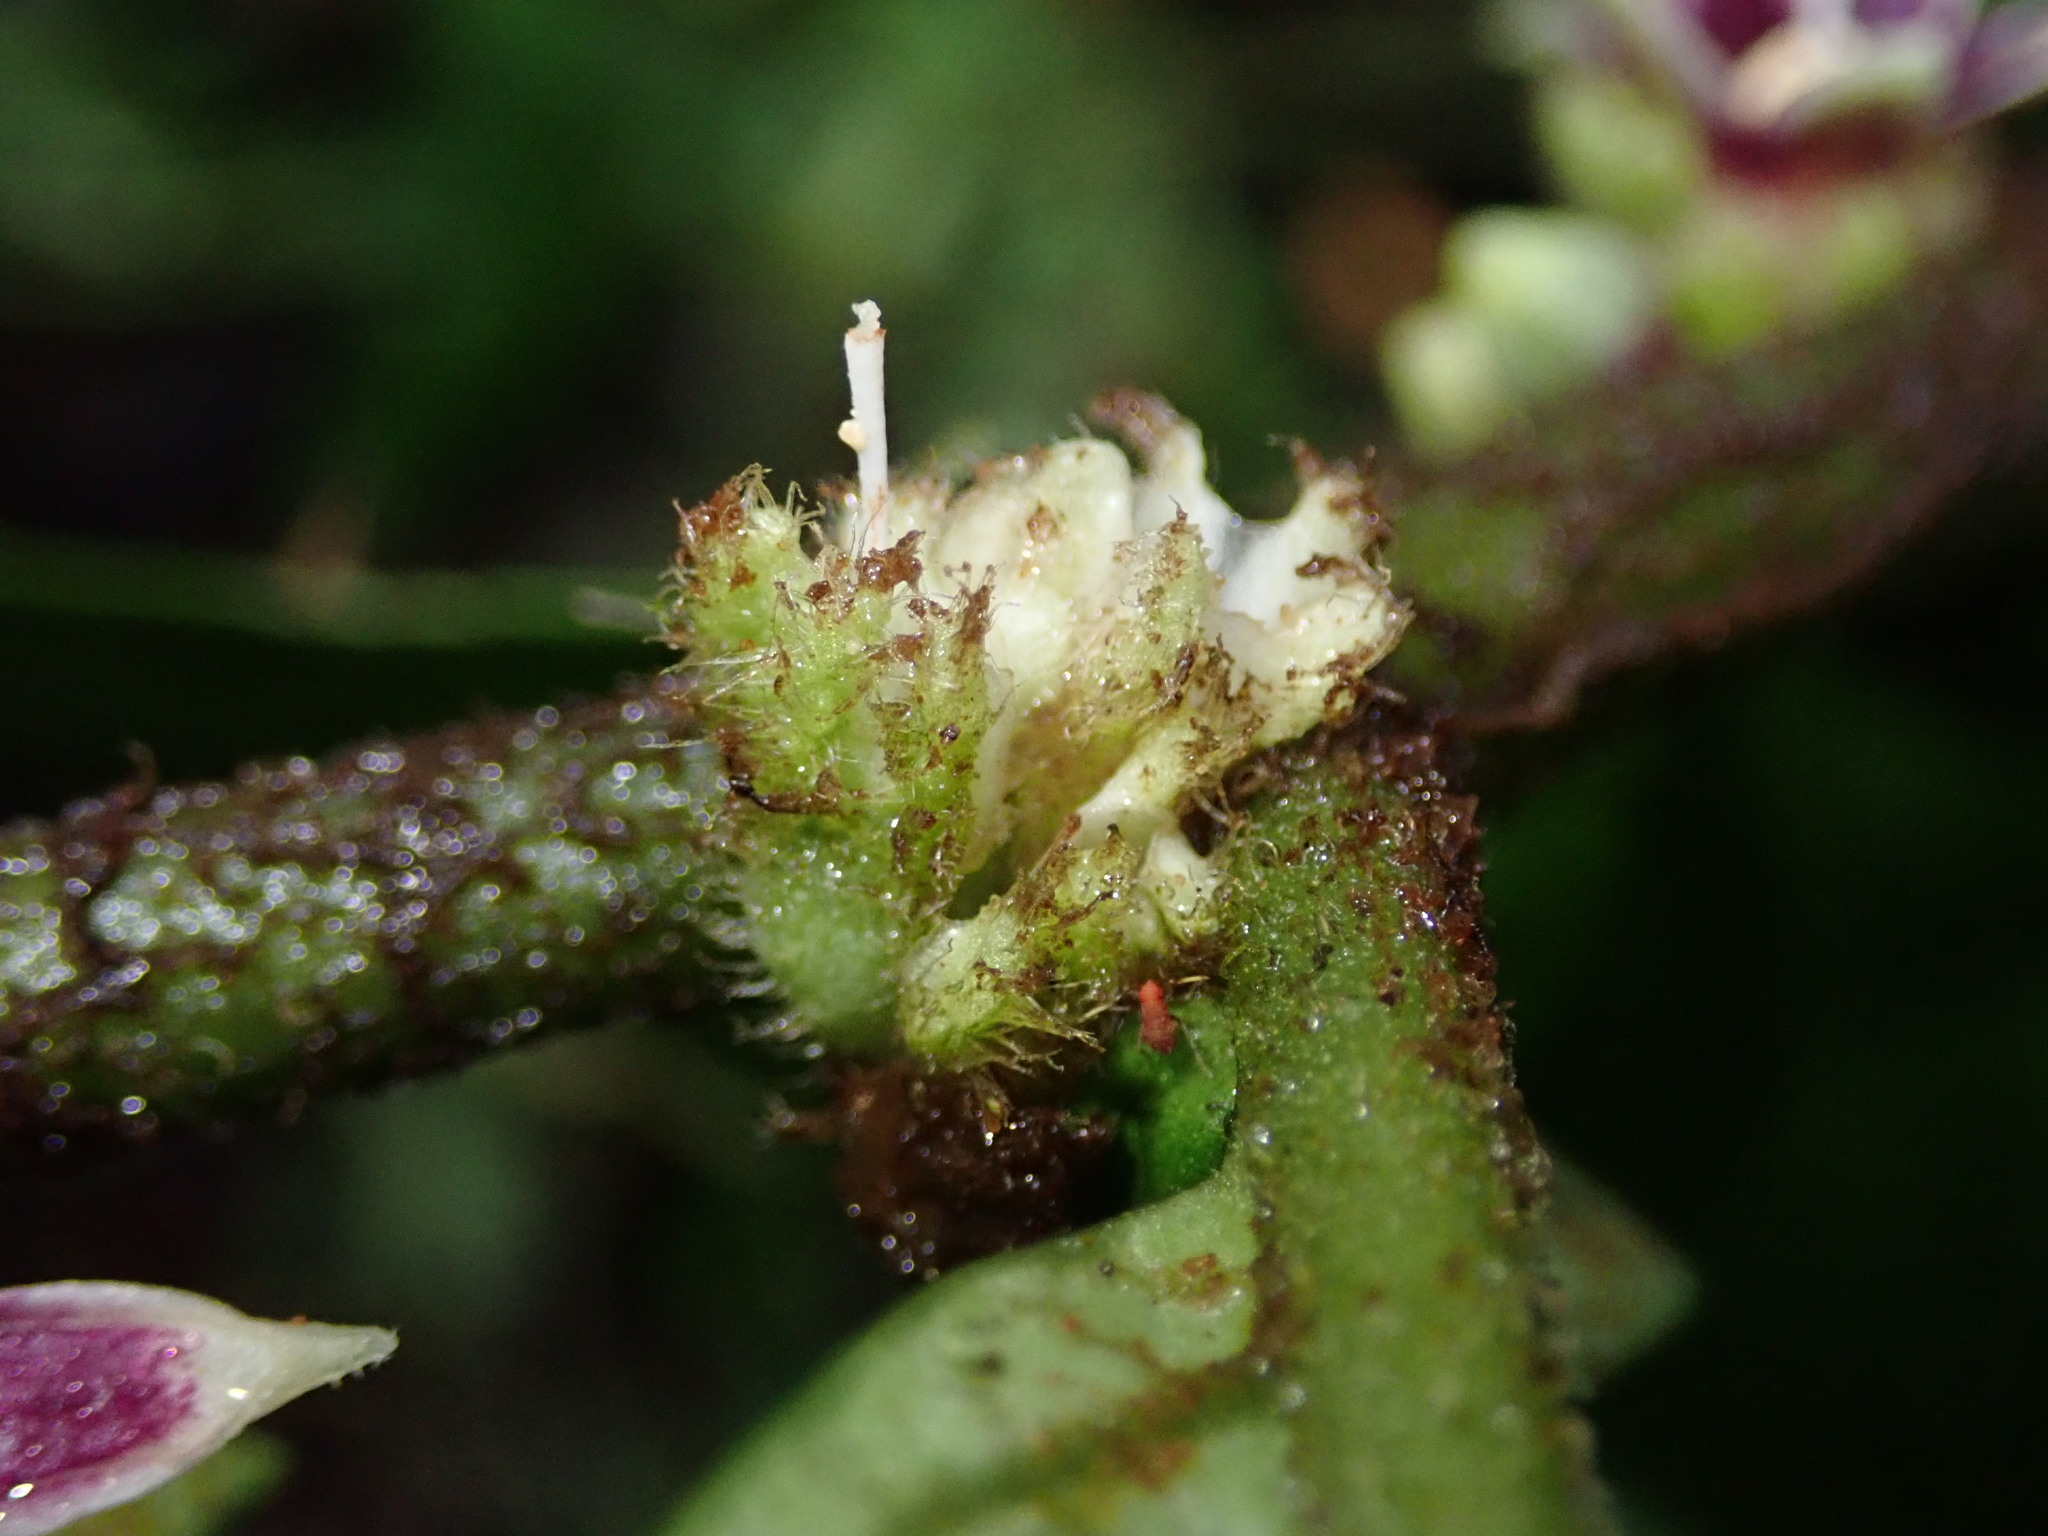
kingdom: Plantae
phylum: Tracheophyta
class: Magnoliopsida
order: Solanales
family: Solanaceae
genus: Cuatresia
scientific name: Cuatresia harlingiana
